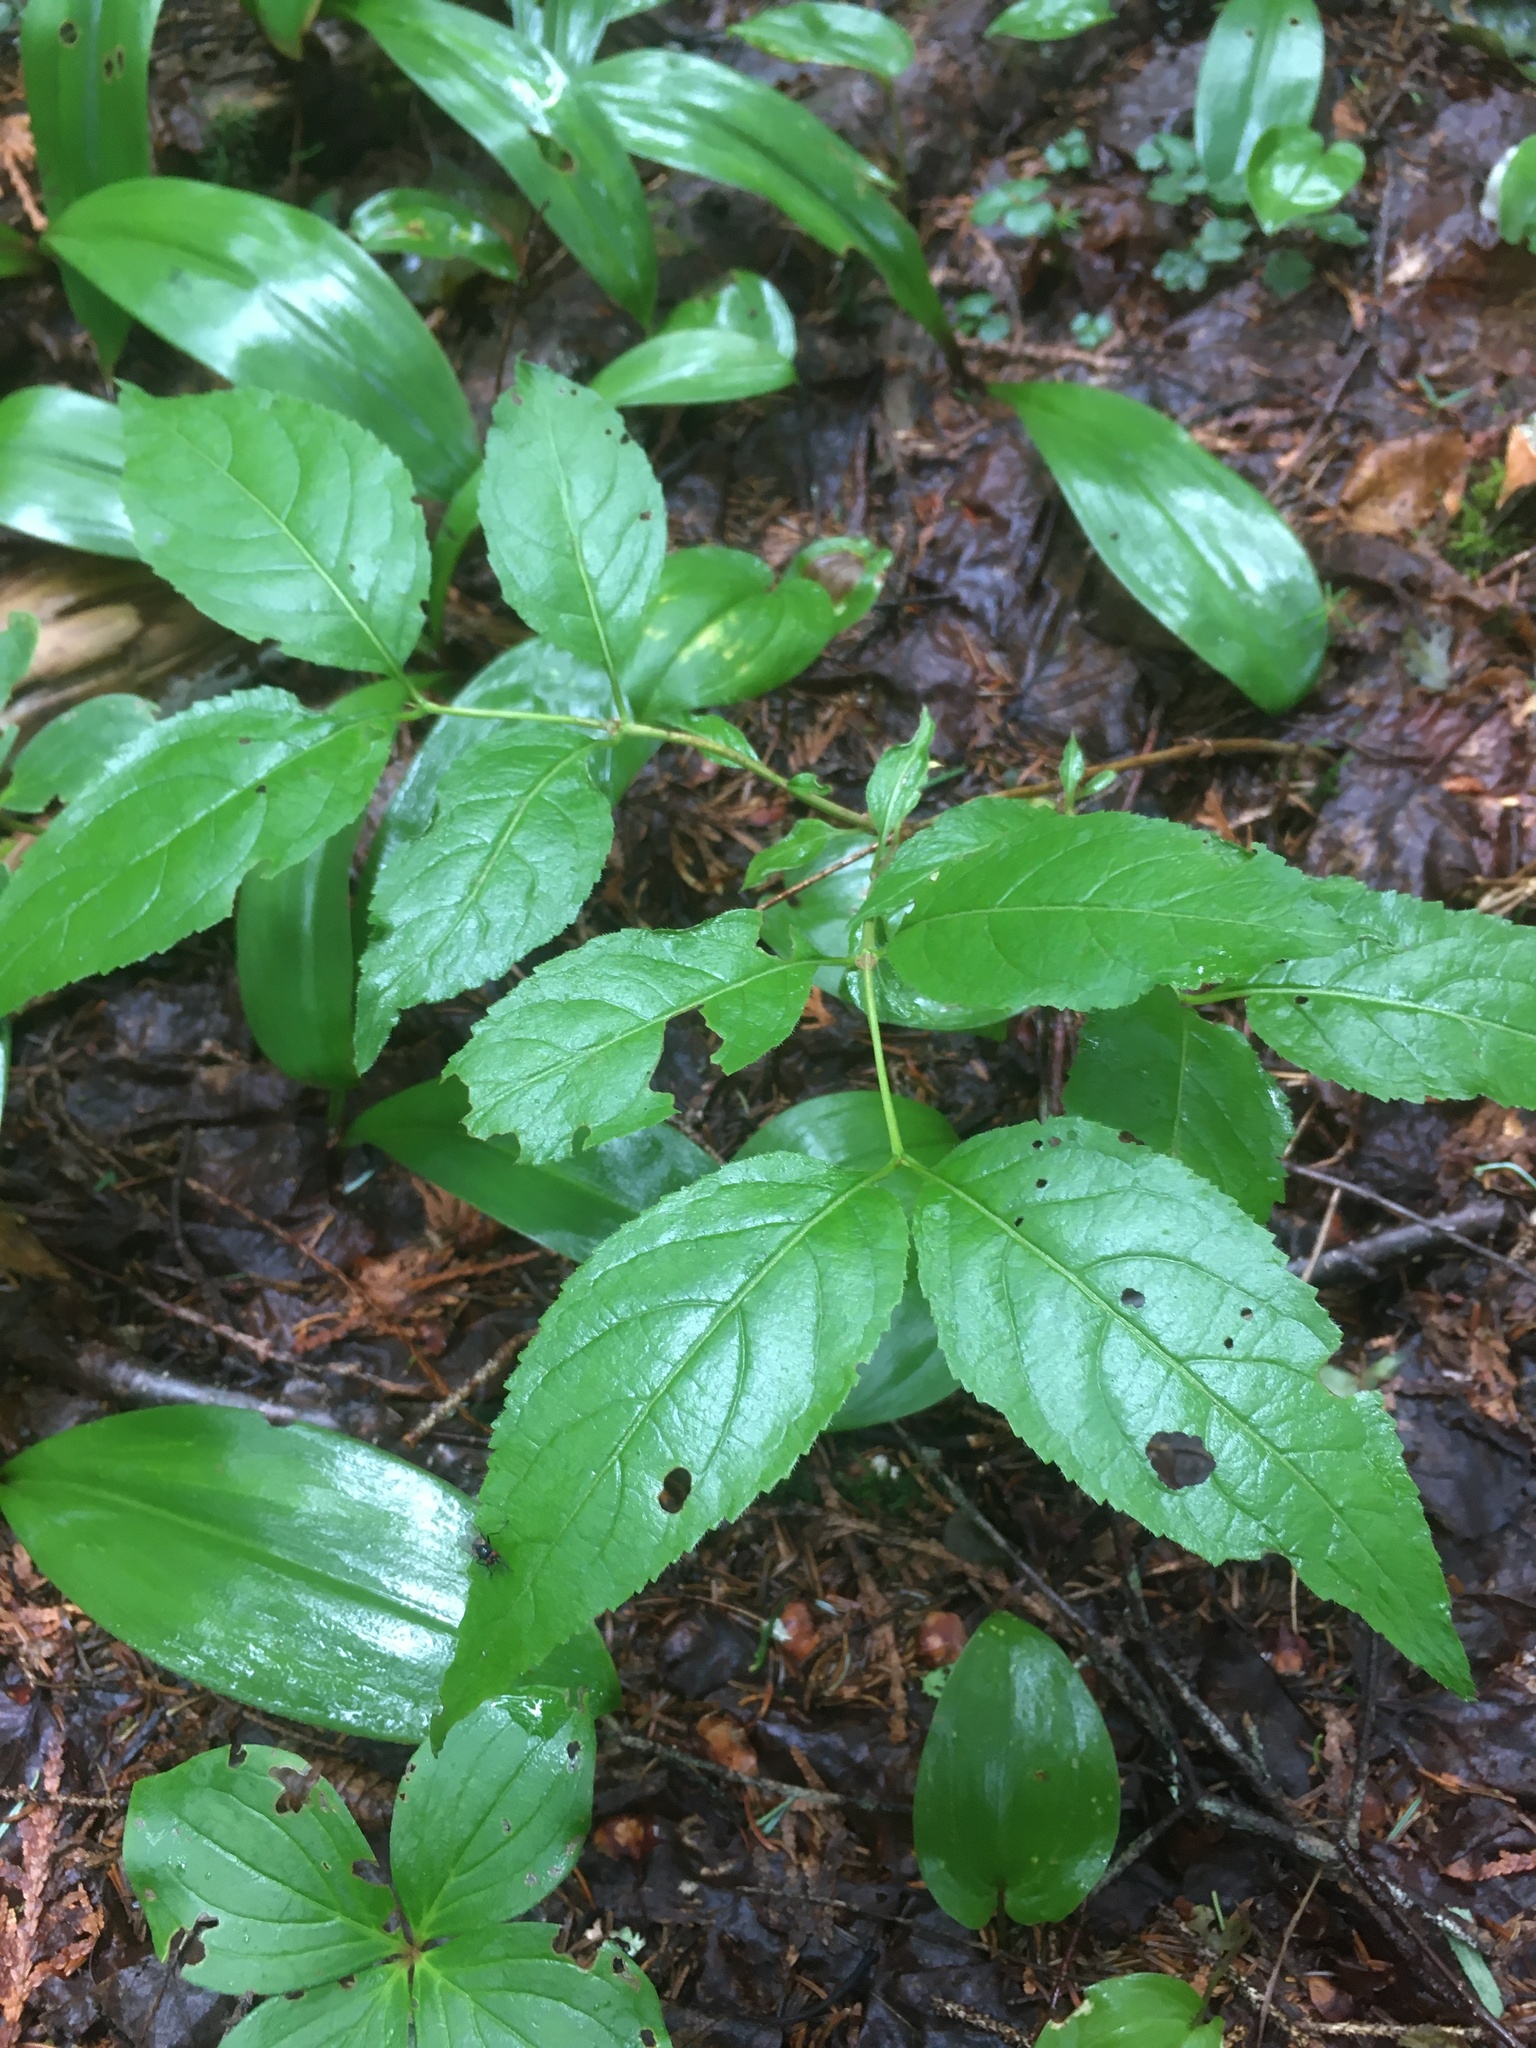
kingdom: Plantae
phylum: Tracheophyta
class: Magnoliopsida
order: Dipsacales
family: Caprifoliaceae
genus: Diervilla
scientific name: Diervilla lonicera
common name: Bush-honeysuckle
